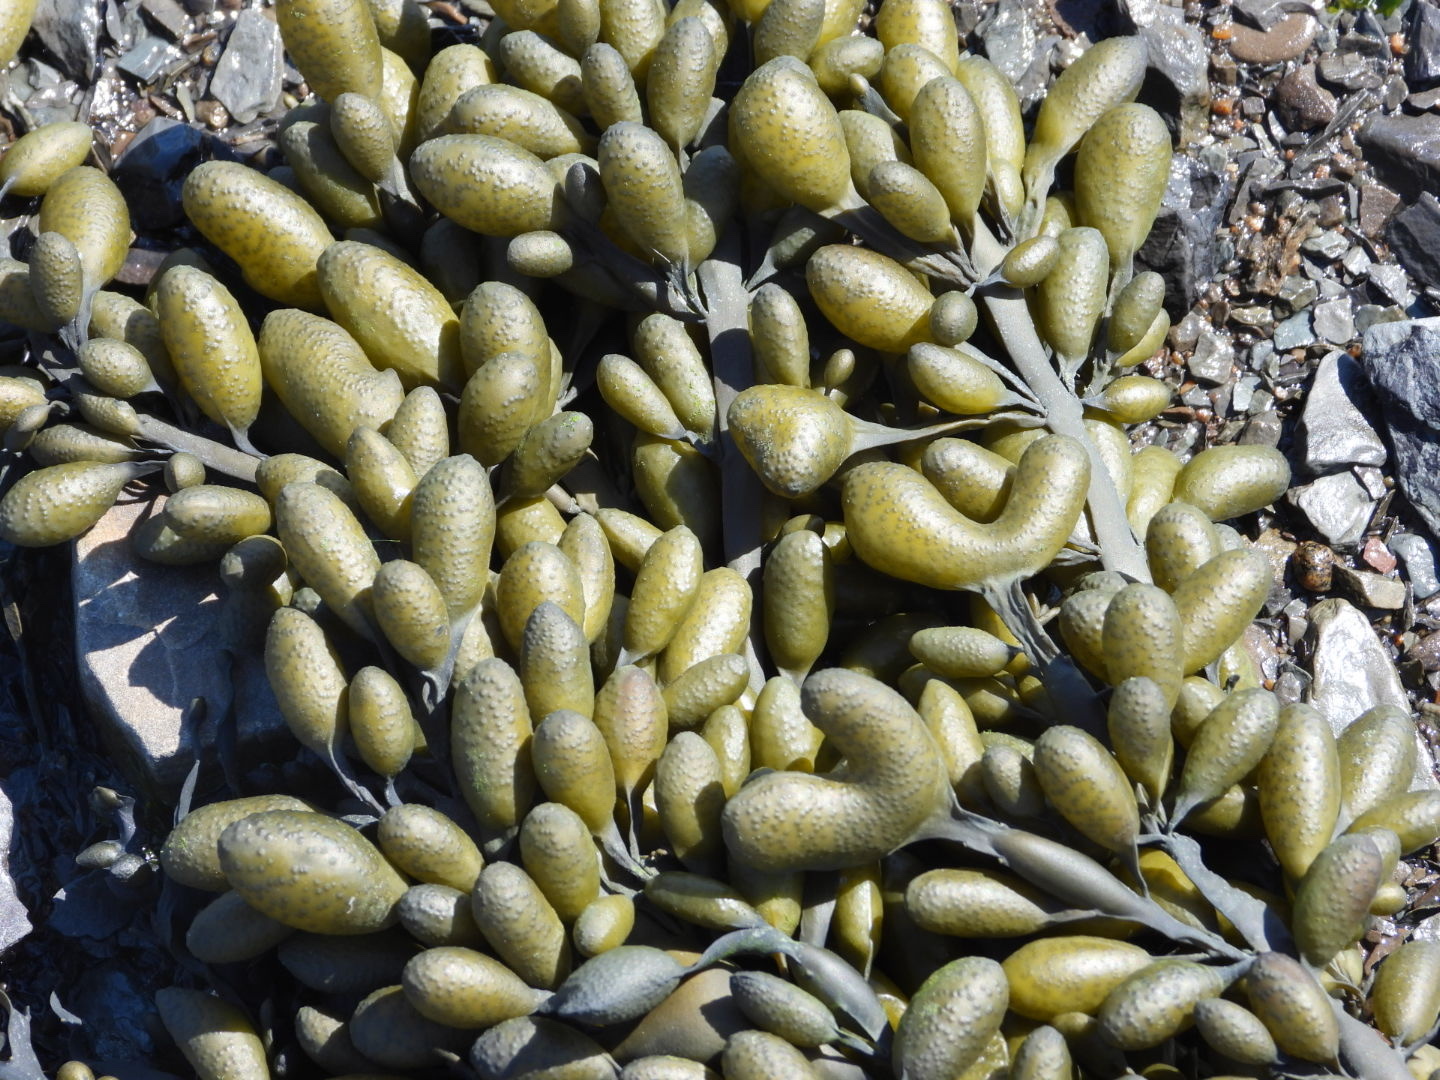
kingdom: Chromista
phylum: Ochrophyta
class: Phaeophyceae
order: Fucales
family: Fucaceae
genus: Ascophyllum
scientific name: Ascophyllum nodosum
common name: Knotted wrack
